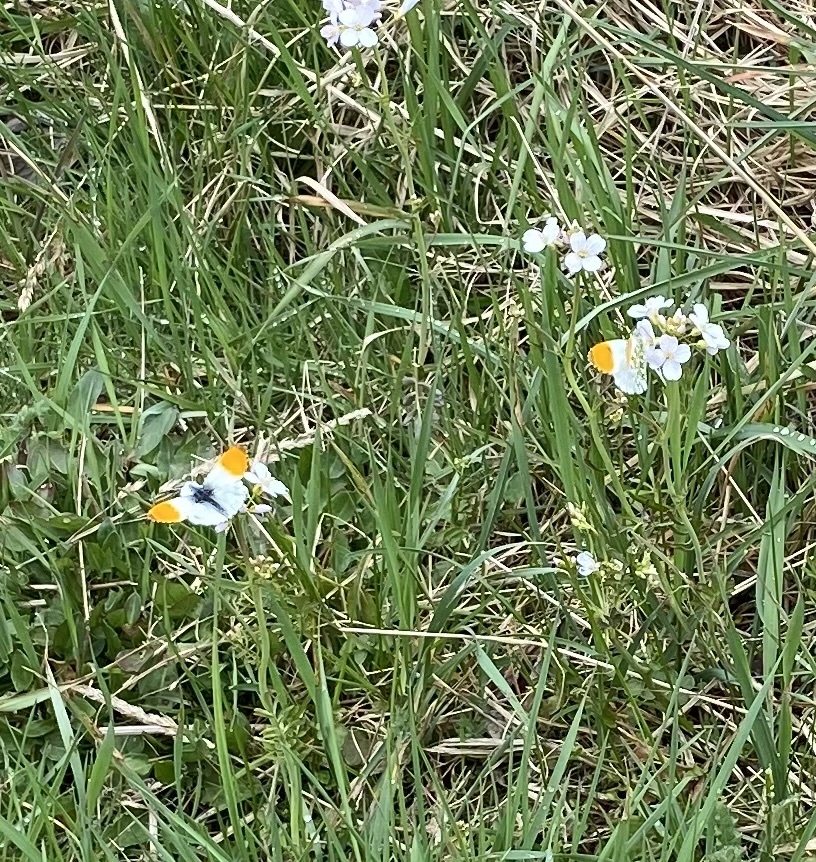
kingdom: Animalia
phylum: Arthropoda
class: Insecta
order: Lepidoptera
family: Pieridae
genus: Anthocharis
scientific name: Anthocharis cardamines
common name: Orange-tip
